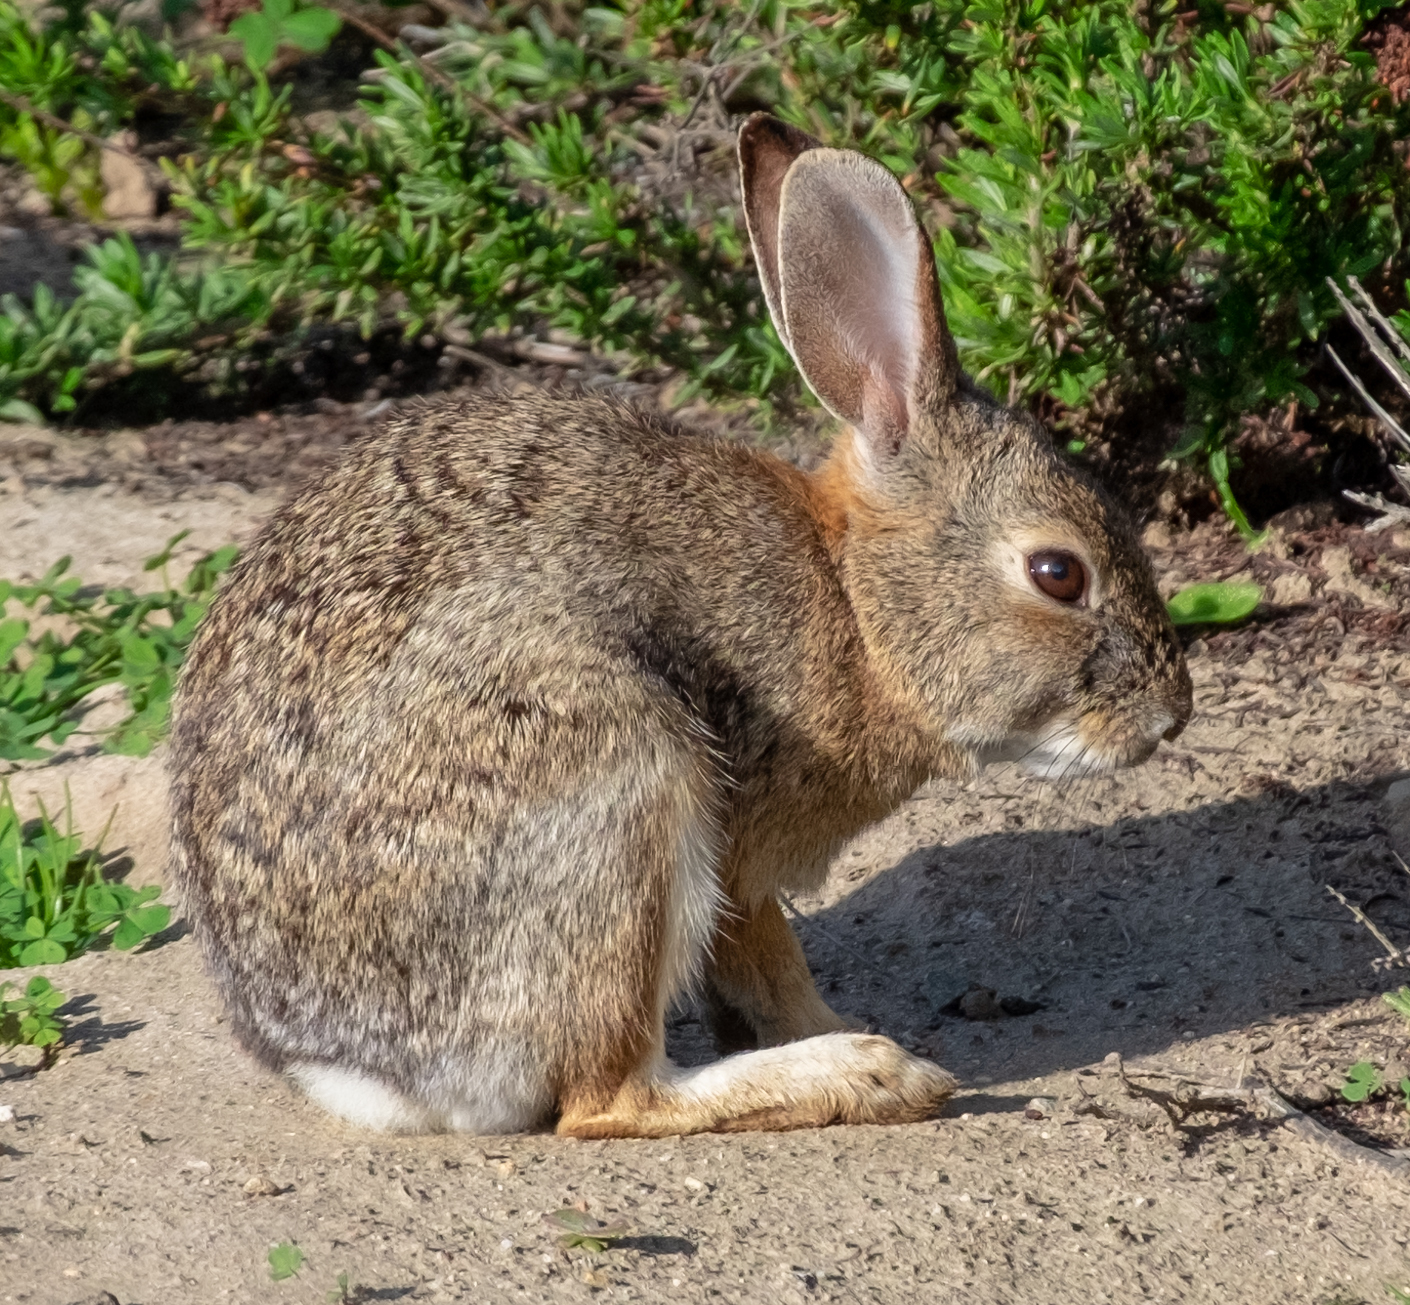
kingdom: Animalia
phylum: Chordata
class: Mammalia
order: Lagomorpha
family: Leporidae
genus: Sylvilagus
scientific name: Sylvilagus audubonii
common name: Desert cottontail
